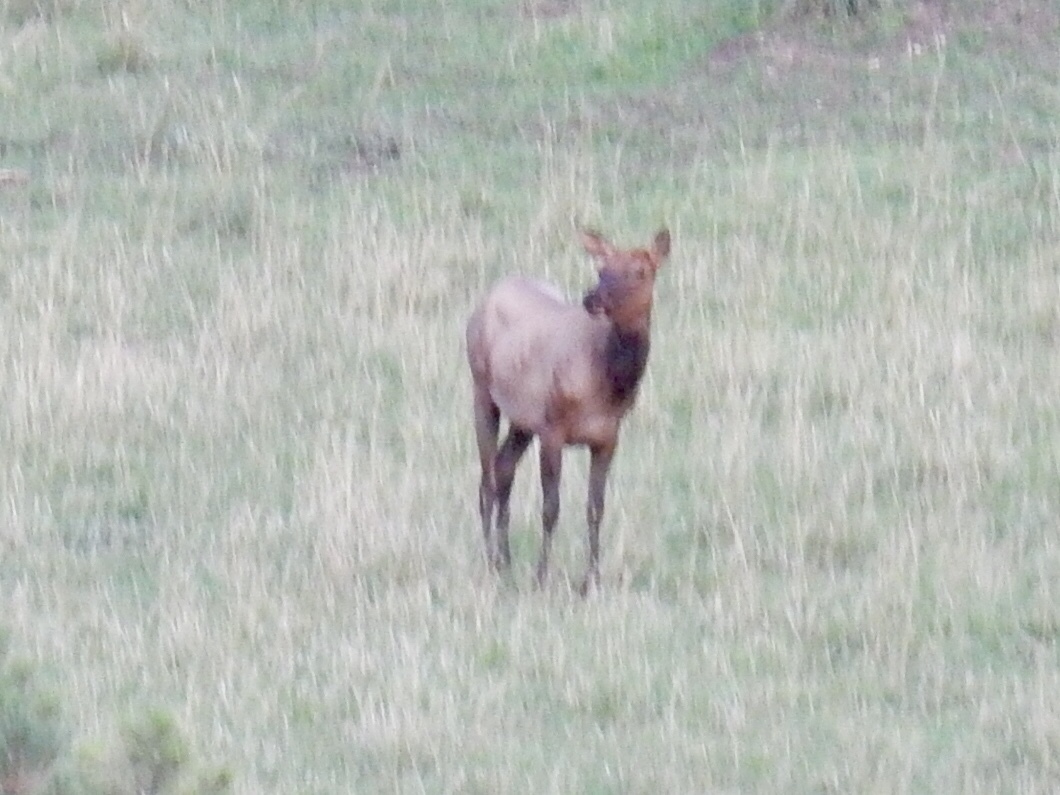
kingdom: Animalia
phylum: Chordata
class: Mammalia
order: Artiodactyla
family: Cervidae
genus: Cervus
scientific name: Cervus elaphus
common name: Red deer
